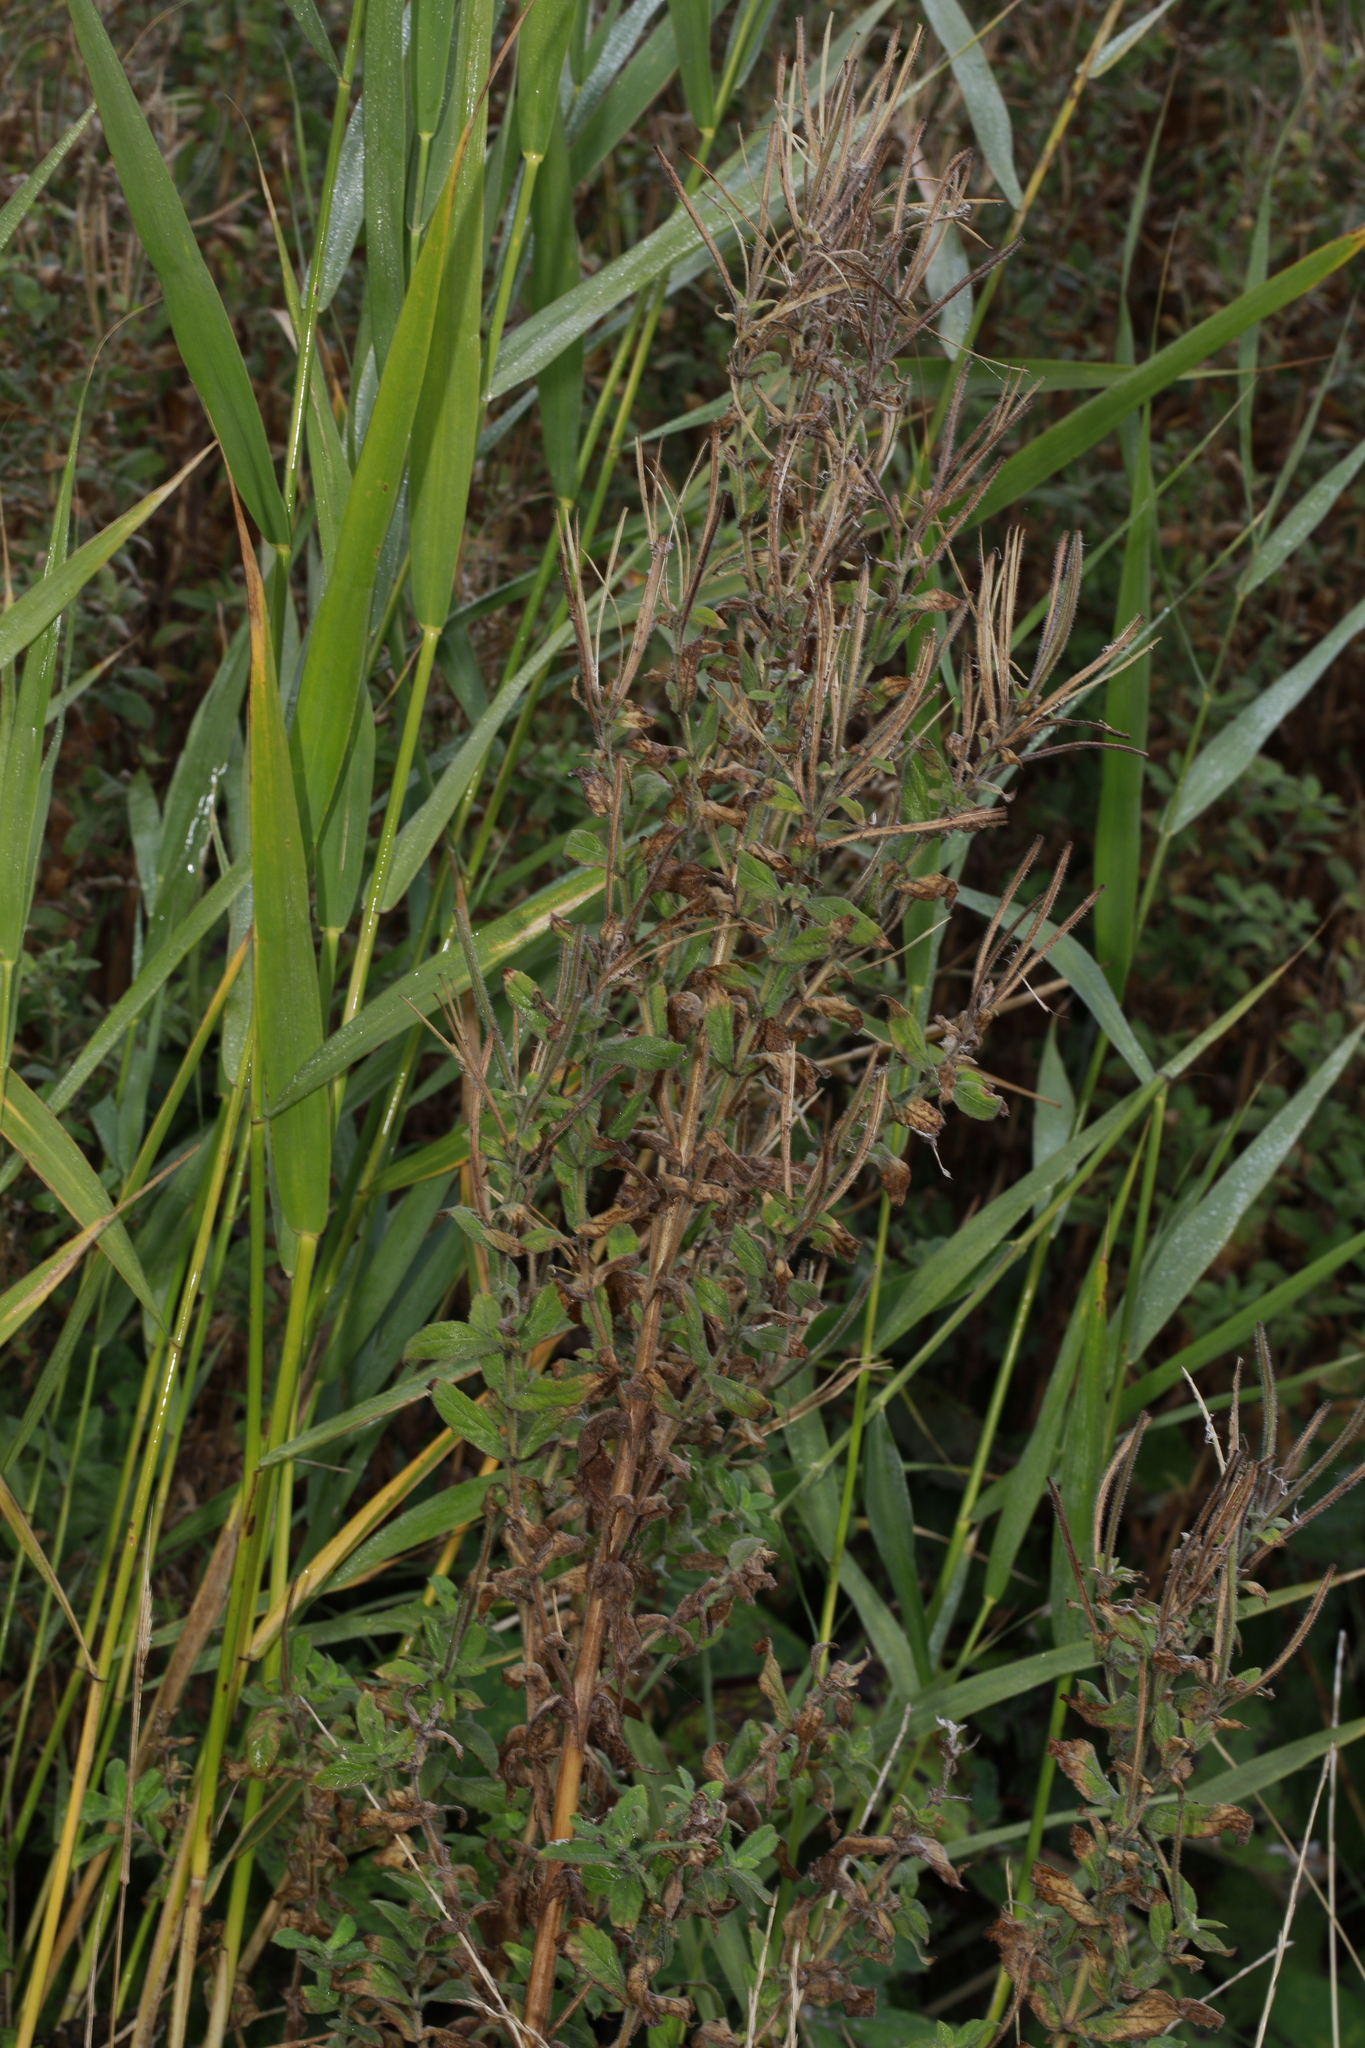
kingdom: Plantae
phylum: Tracheophyta
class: Magnoliopsida
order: Myrtales
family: Onagraceae
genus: Epilobium
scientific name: Epilobium hirsutum
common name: Great willowherb
